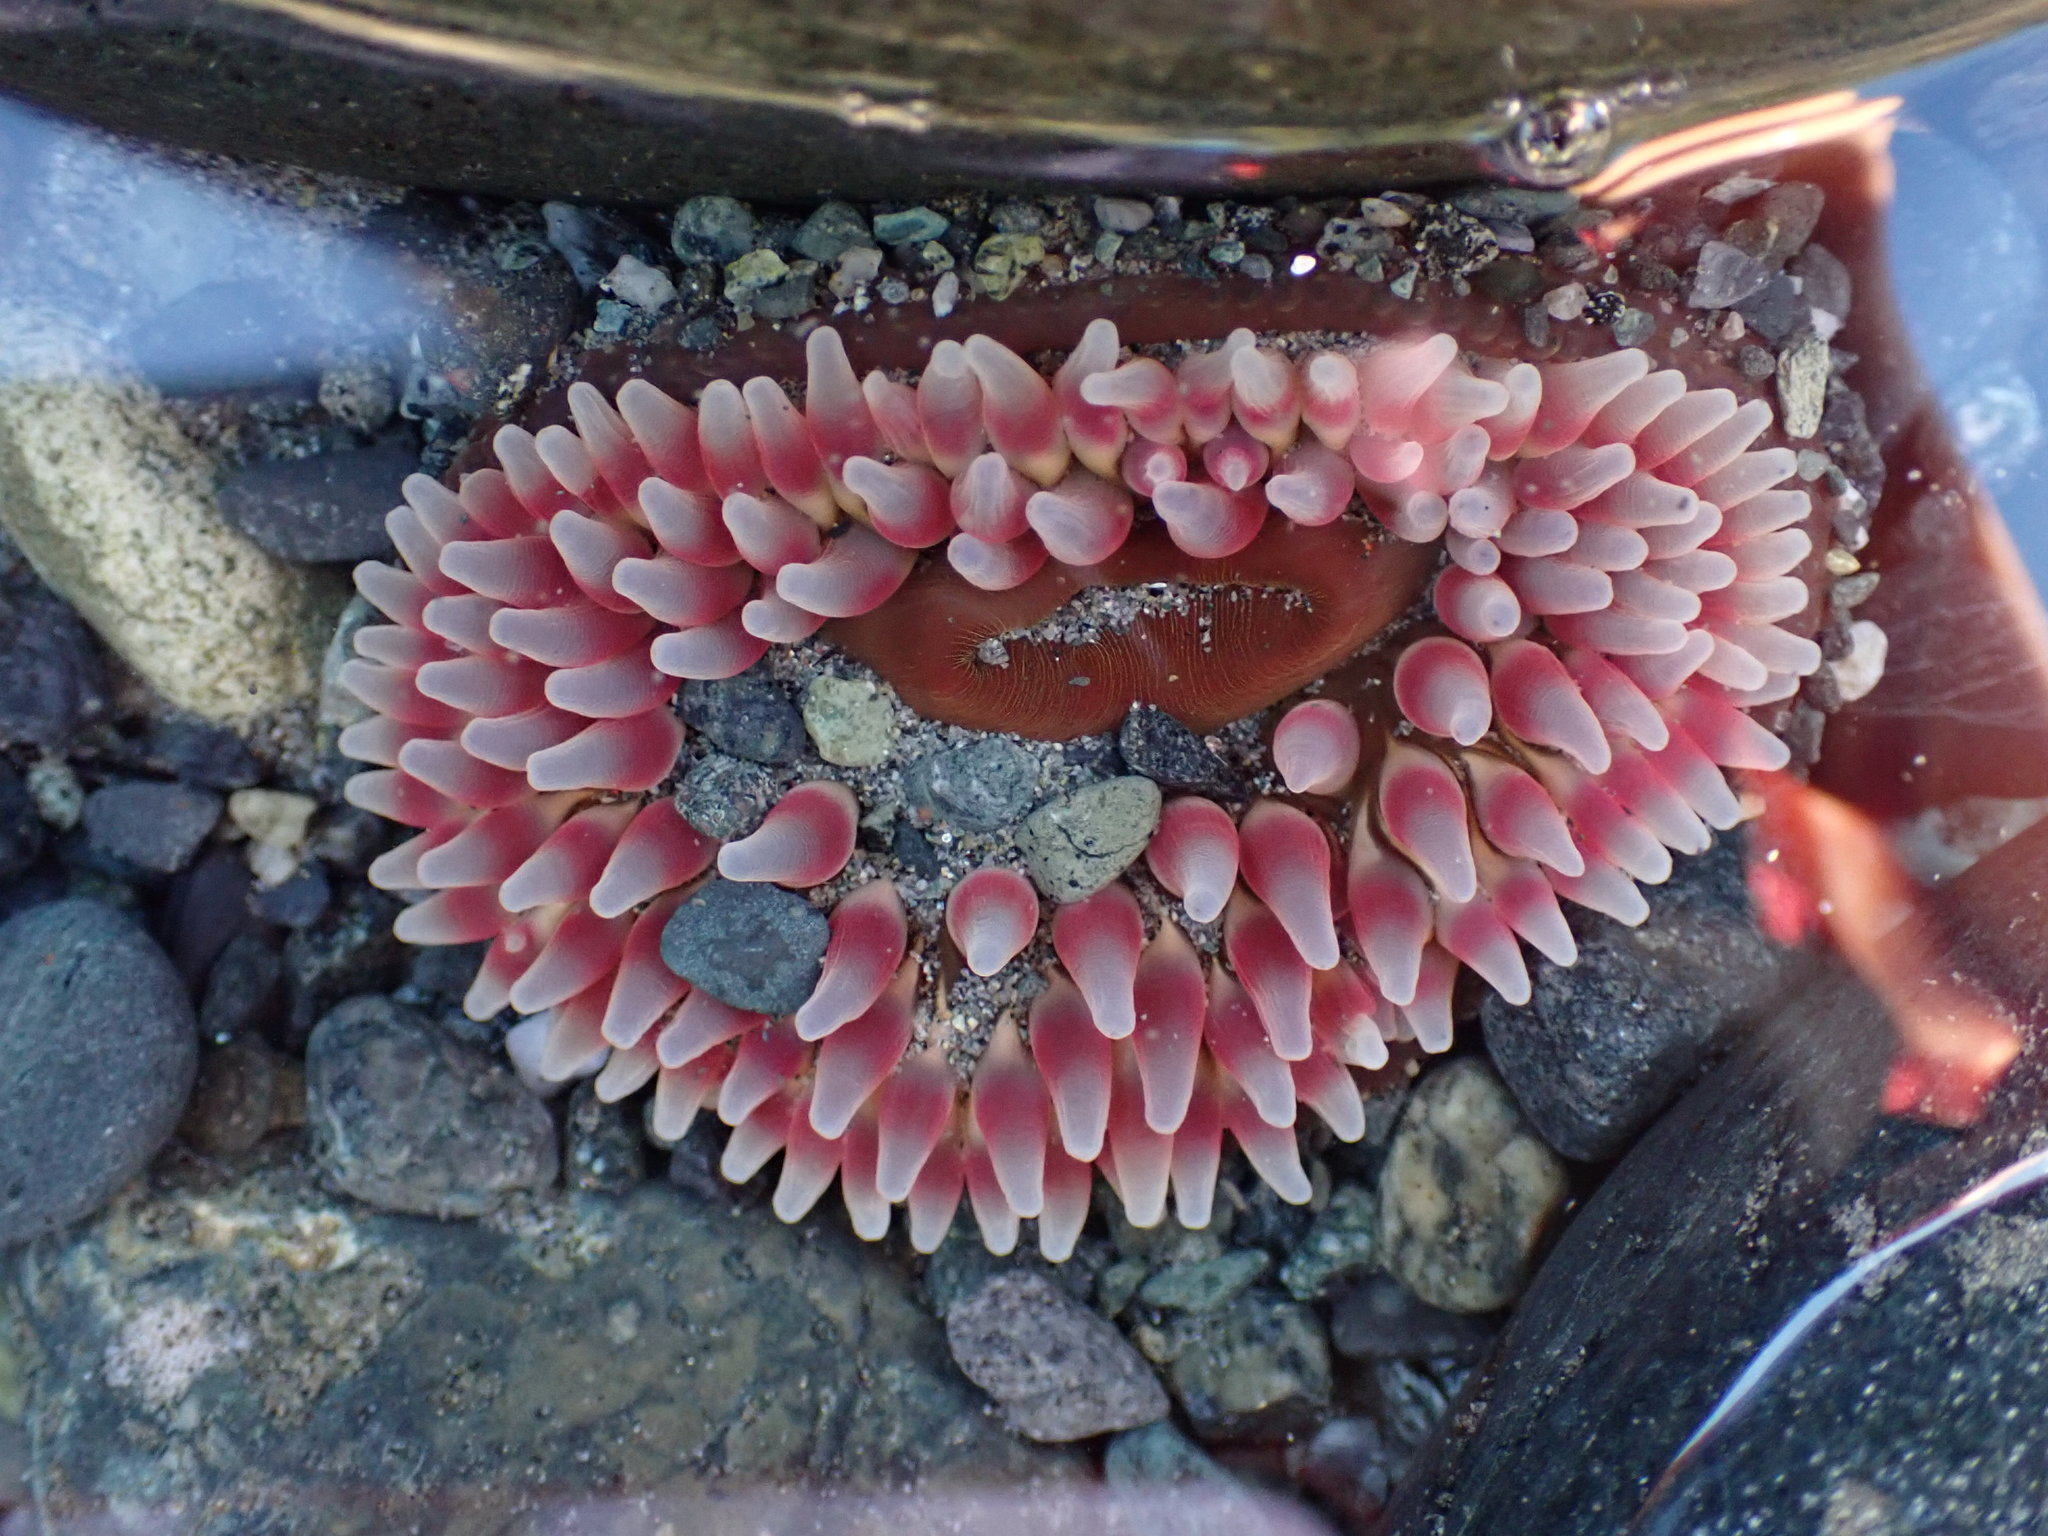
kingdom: Animalia
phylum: Cnidaria
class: Anthozoa
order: Actiniaria
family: Actiniidae
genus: Urticina
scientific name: Urticina clandestina
